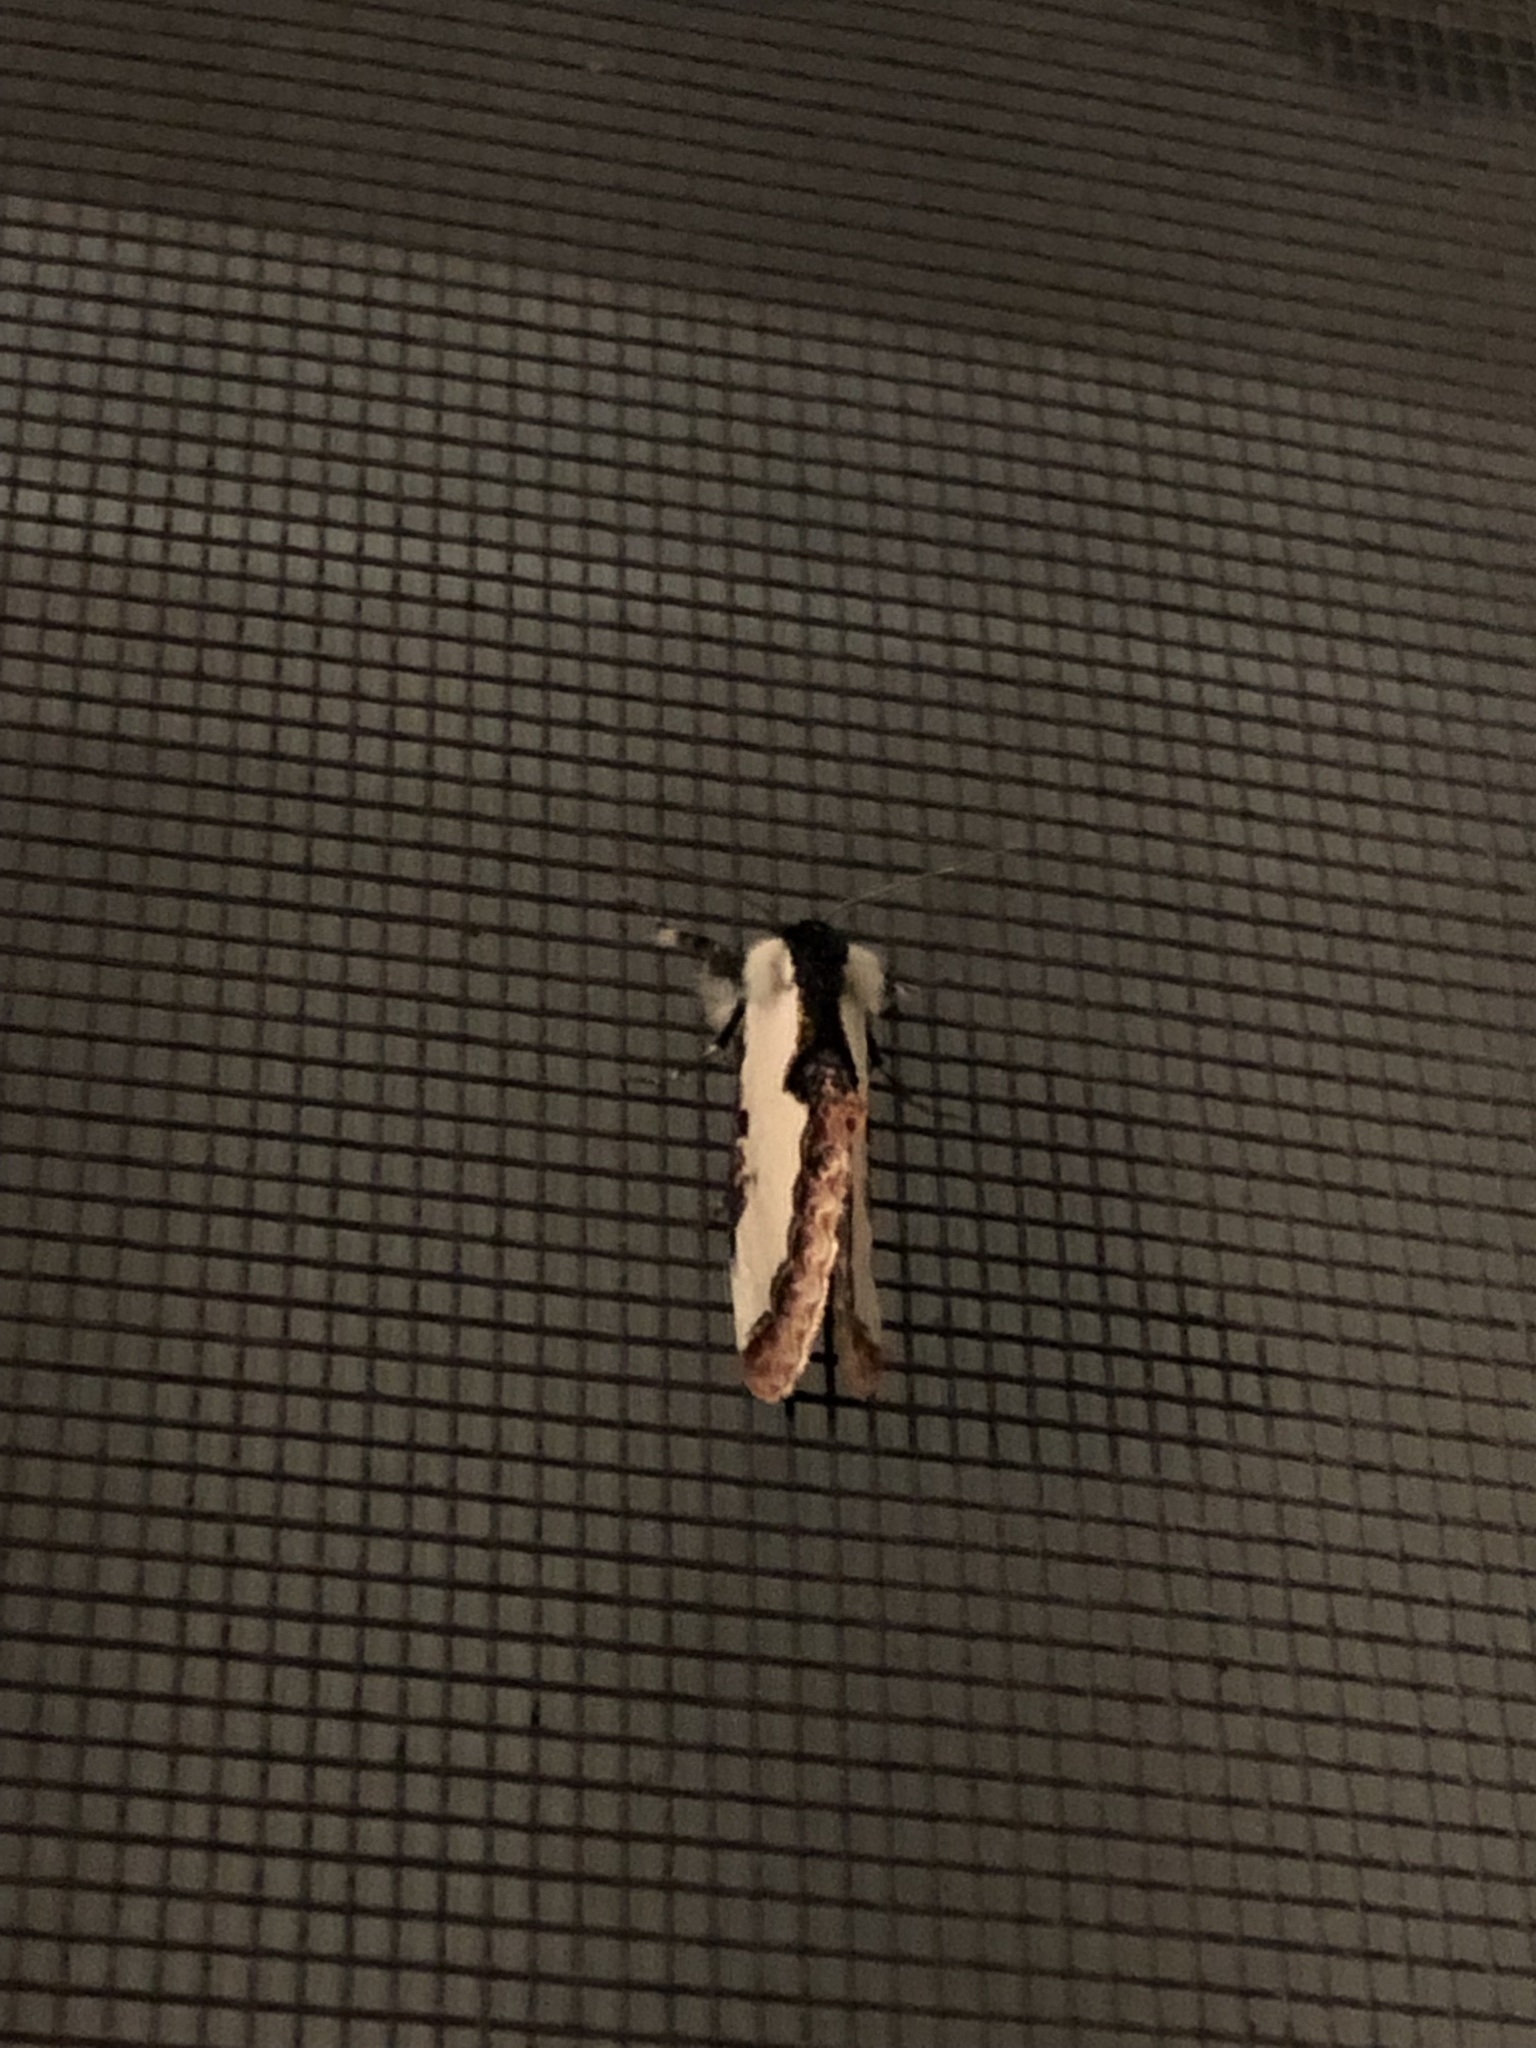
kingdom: Animalia
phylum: Arthropoda
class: Insecta
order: Lepidoptera
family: Noctuidae
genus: Eudryas
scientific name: Eudryas unio
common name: Pearly wood-nymph
